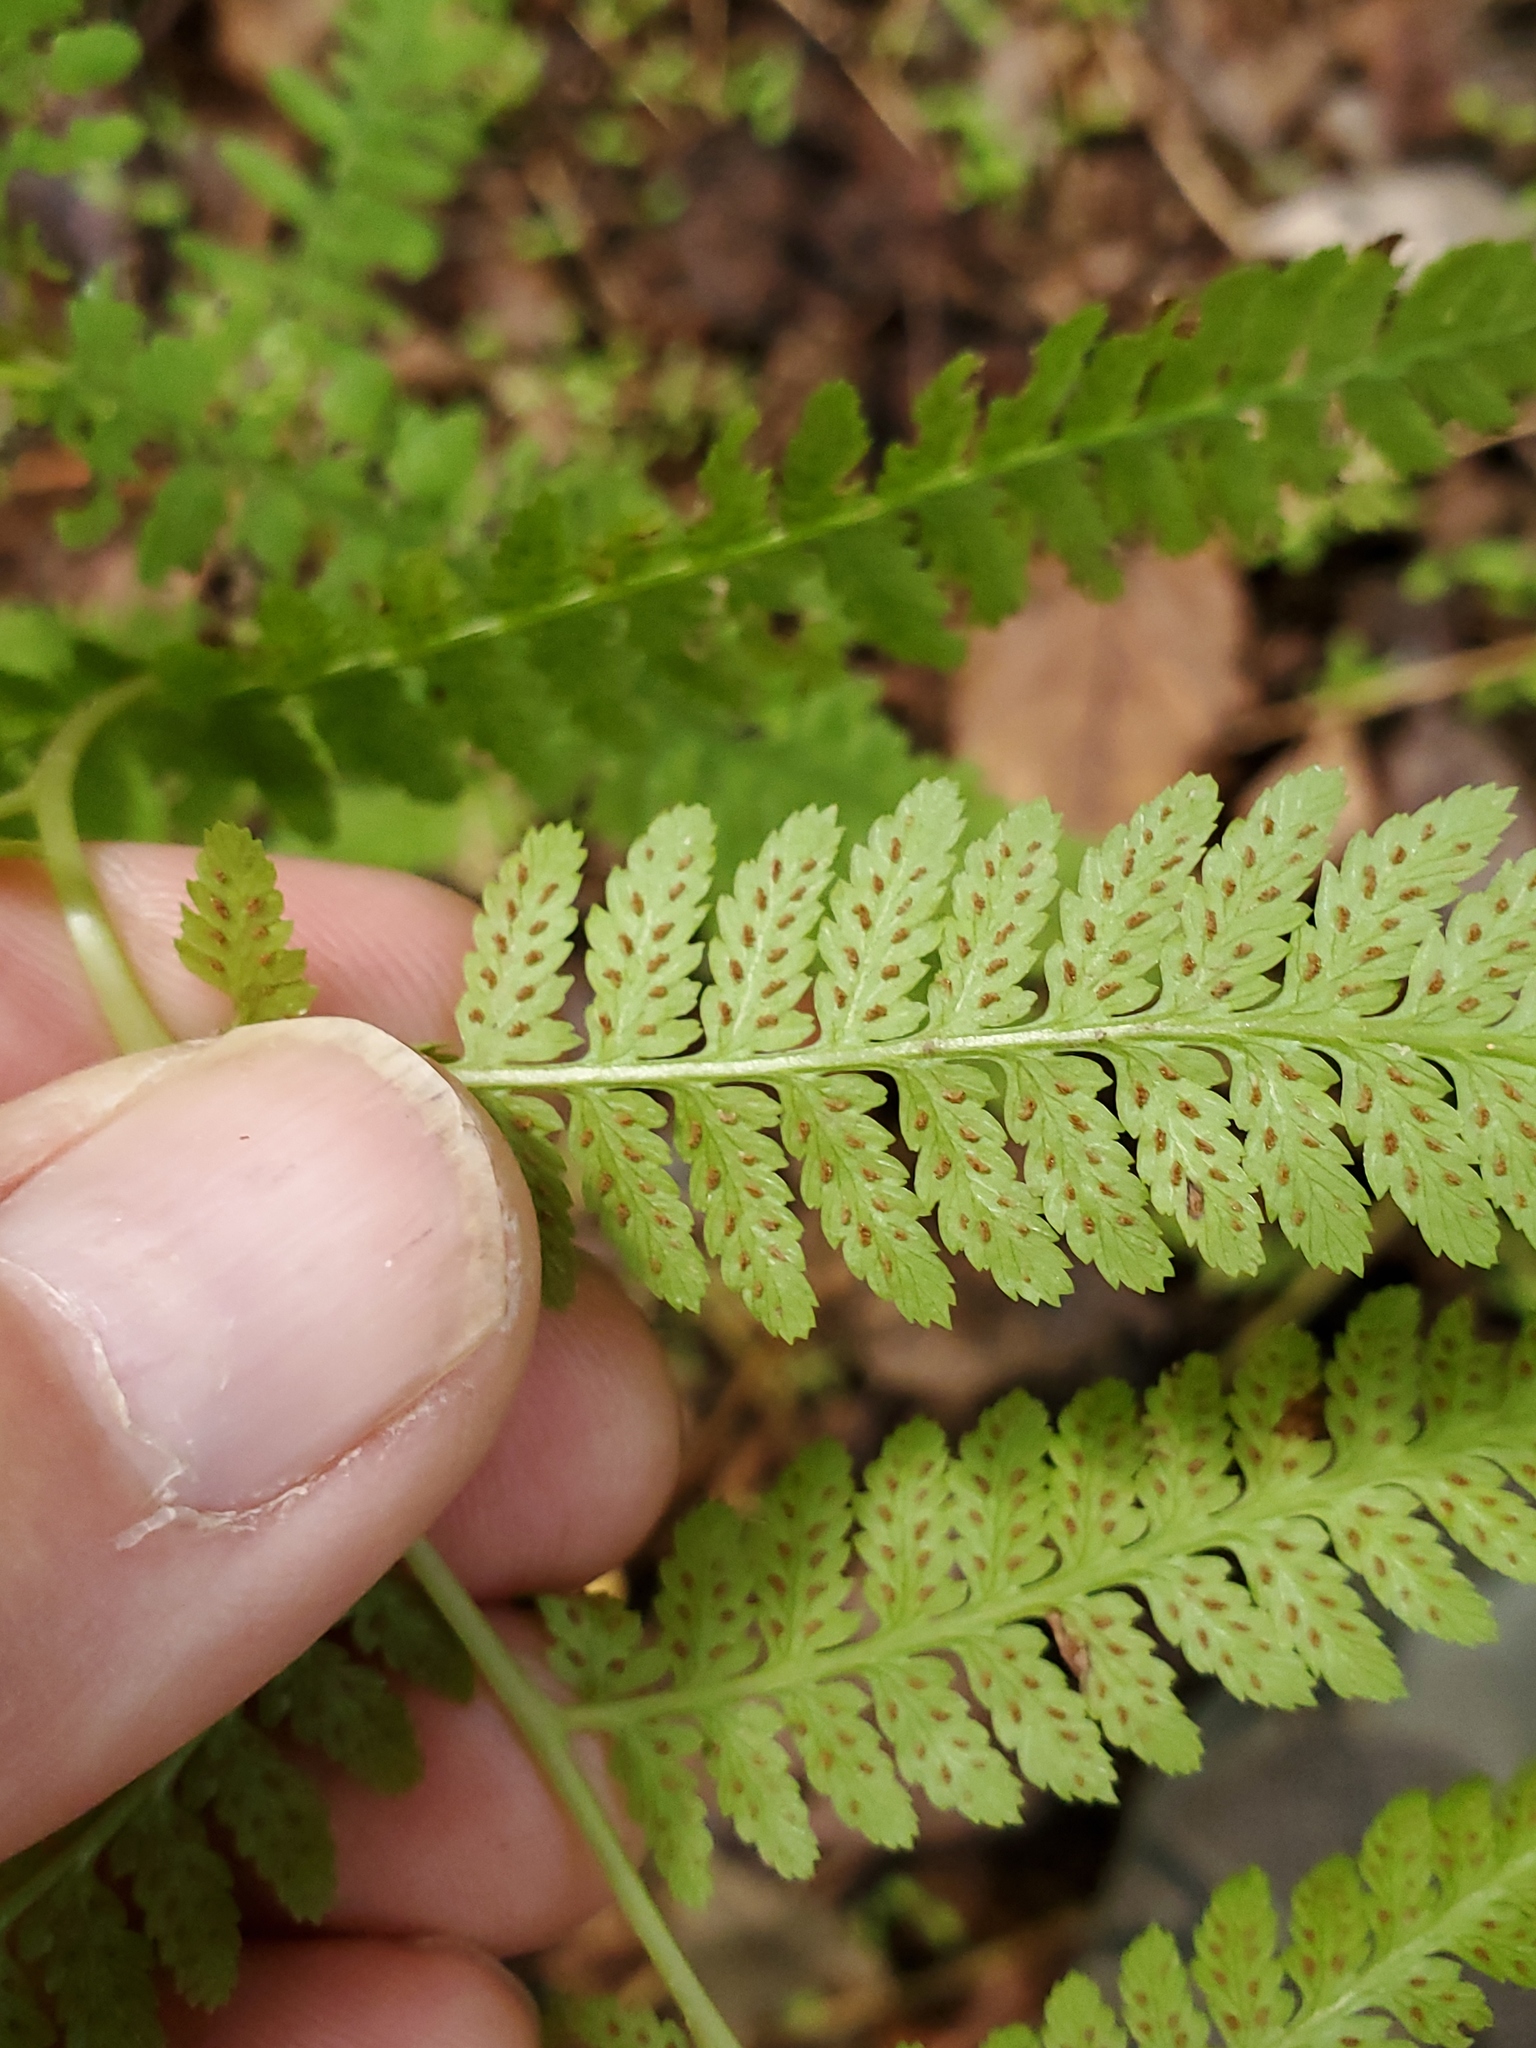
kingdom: Plantae
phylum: Tracheophyta
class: Polypodiopsida
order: Polypodiales
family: Athyriaceae
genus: Athyrium
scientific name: Athyrium asplenioides
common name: Southern lady fern
